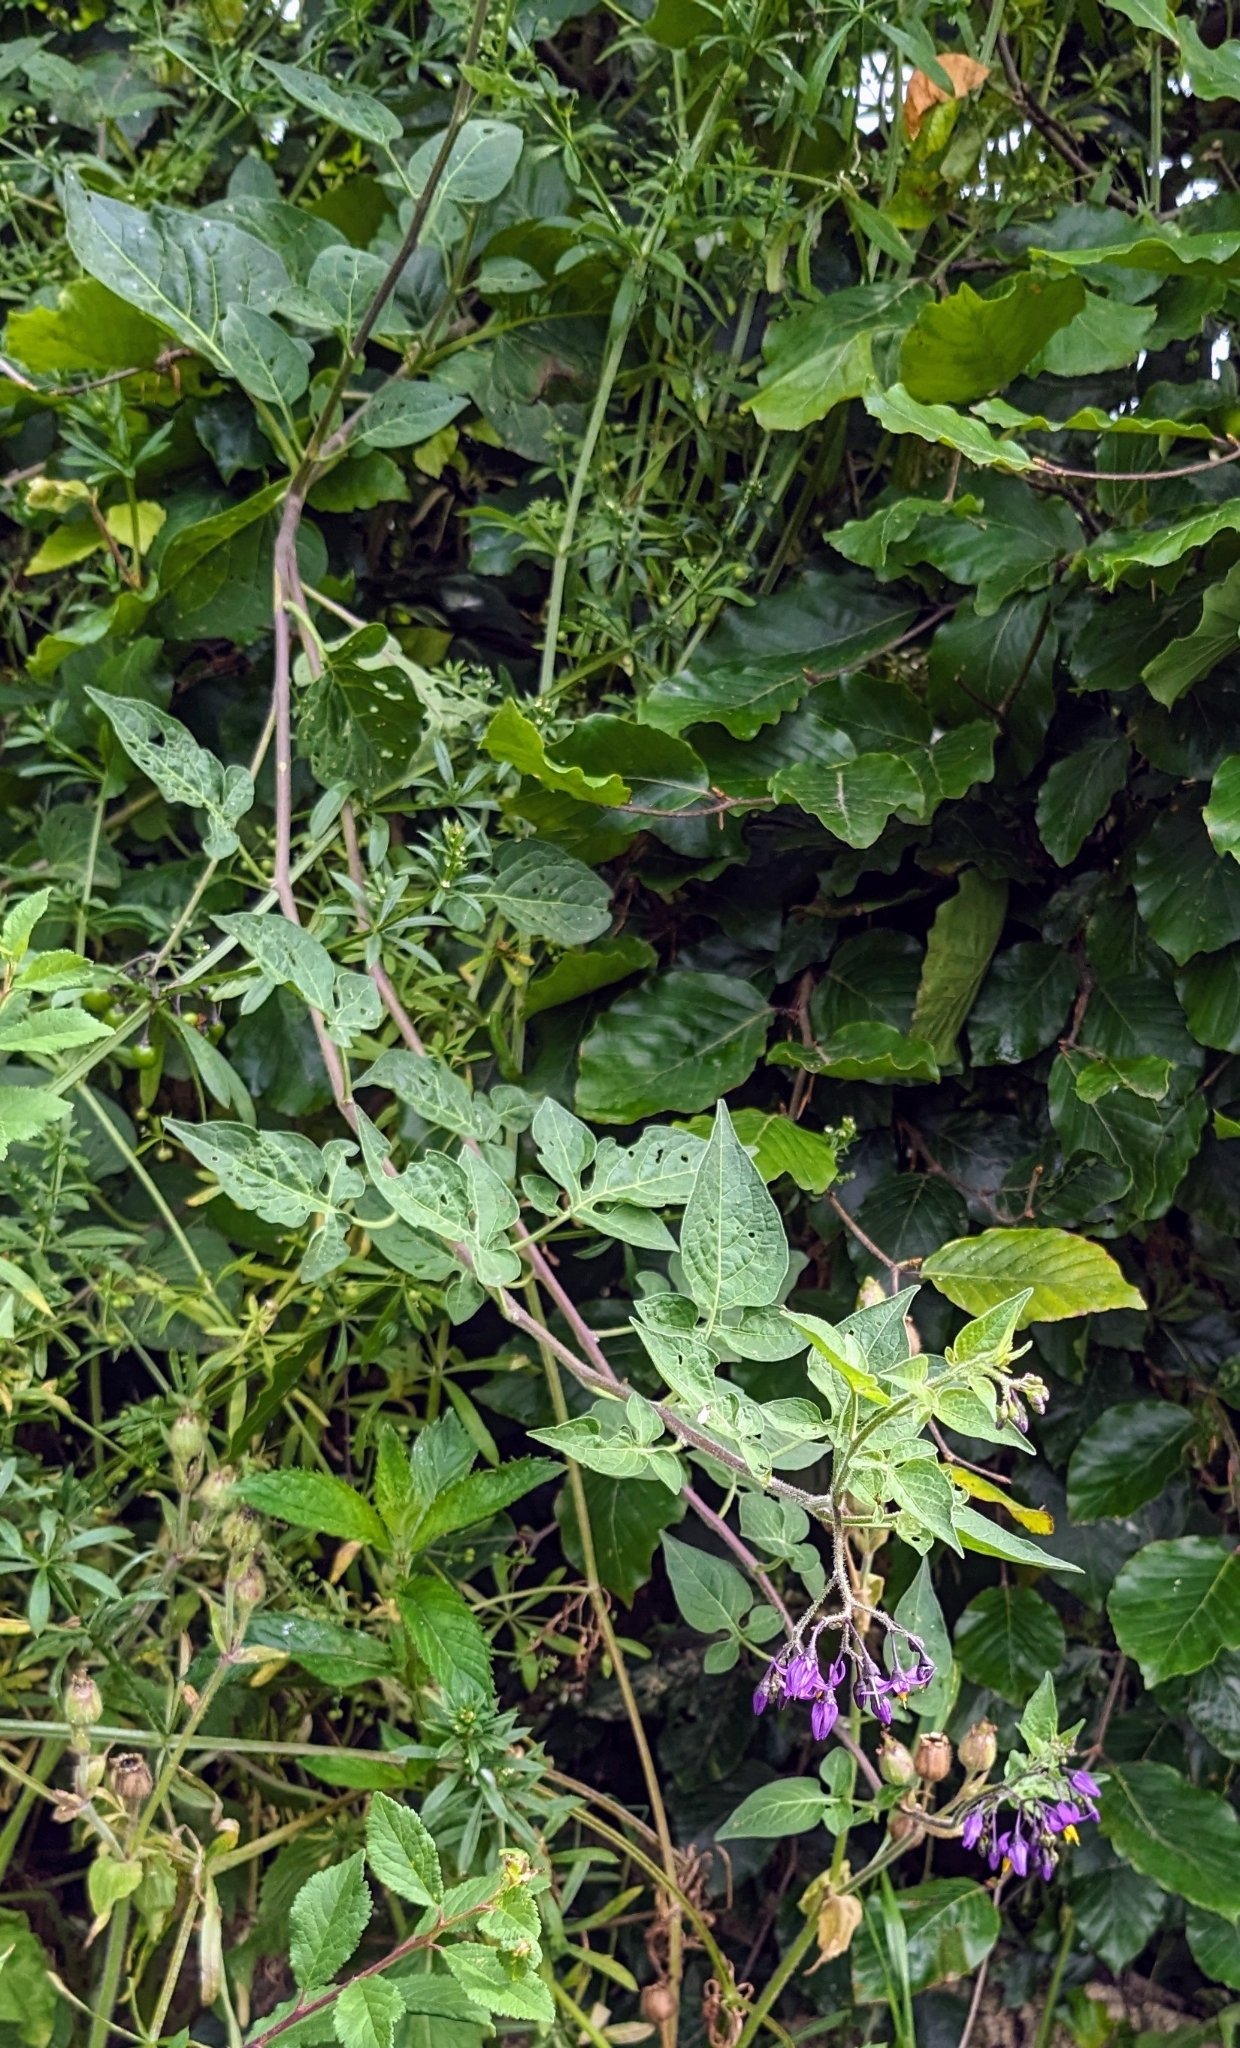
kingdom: Plantae
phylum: Tracheophyta
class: Magnoliopsida
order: Solanales
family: Solanaceae
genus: Solanum
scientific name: Solanum dulcamara
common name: Climbing nightshade
